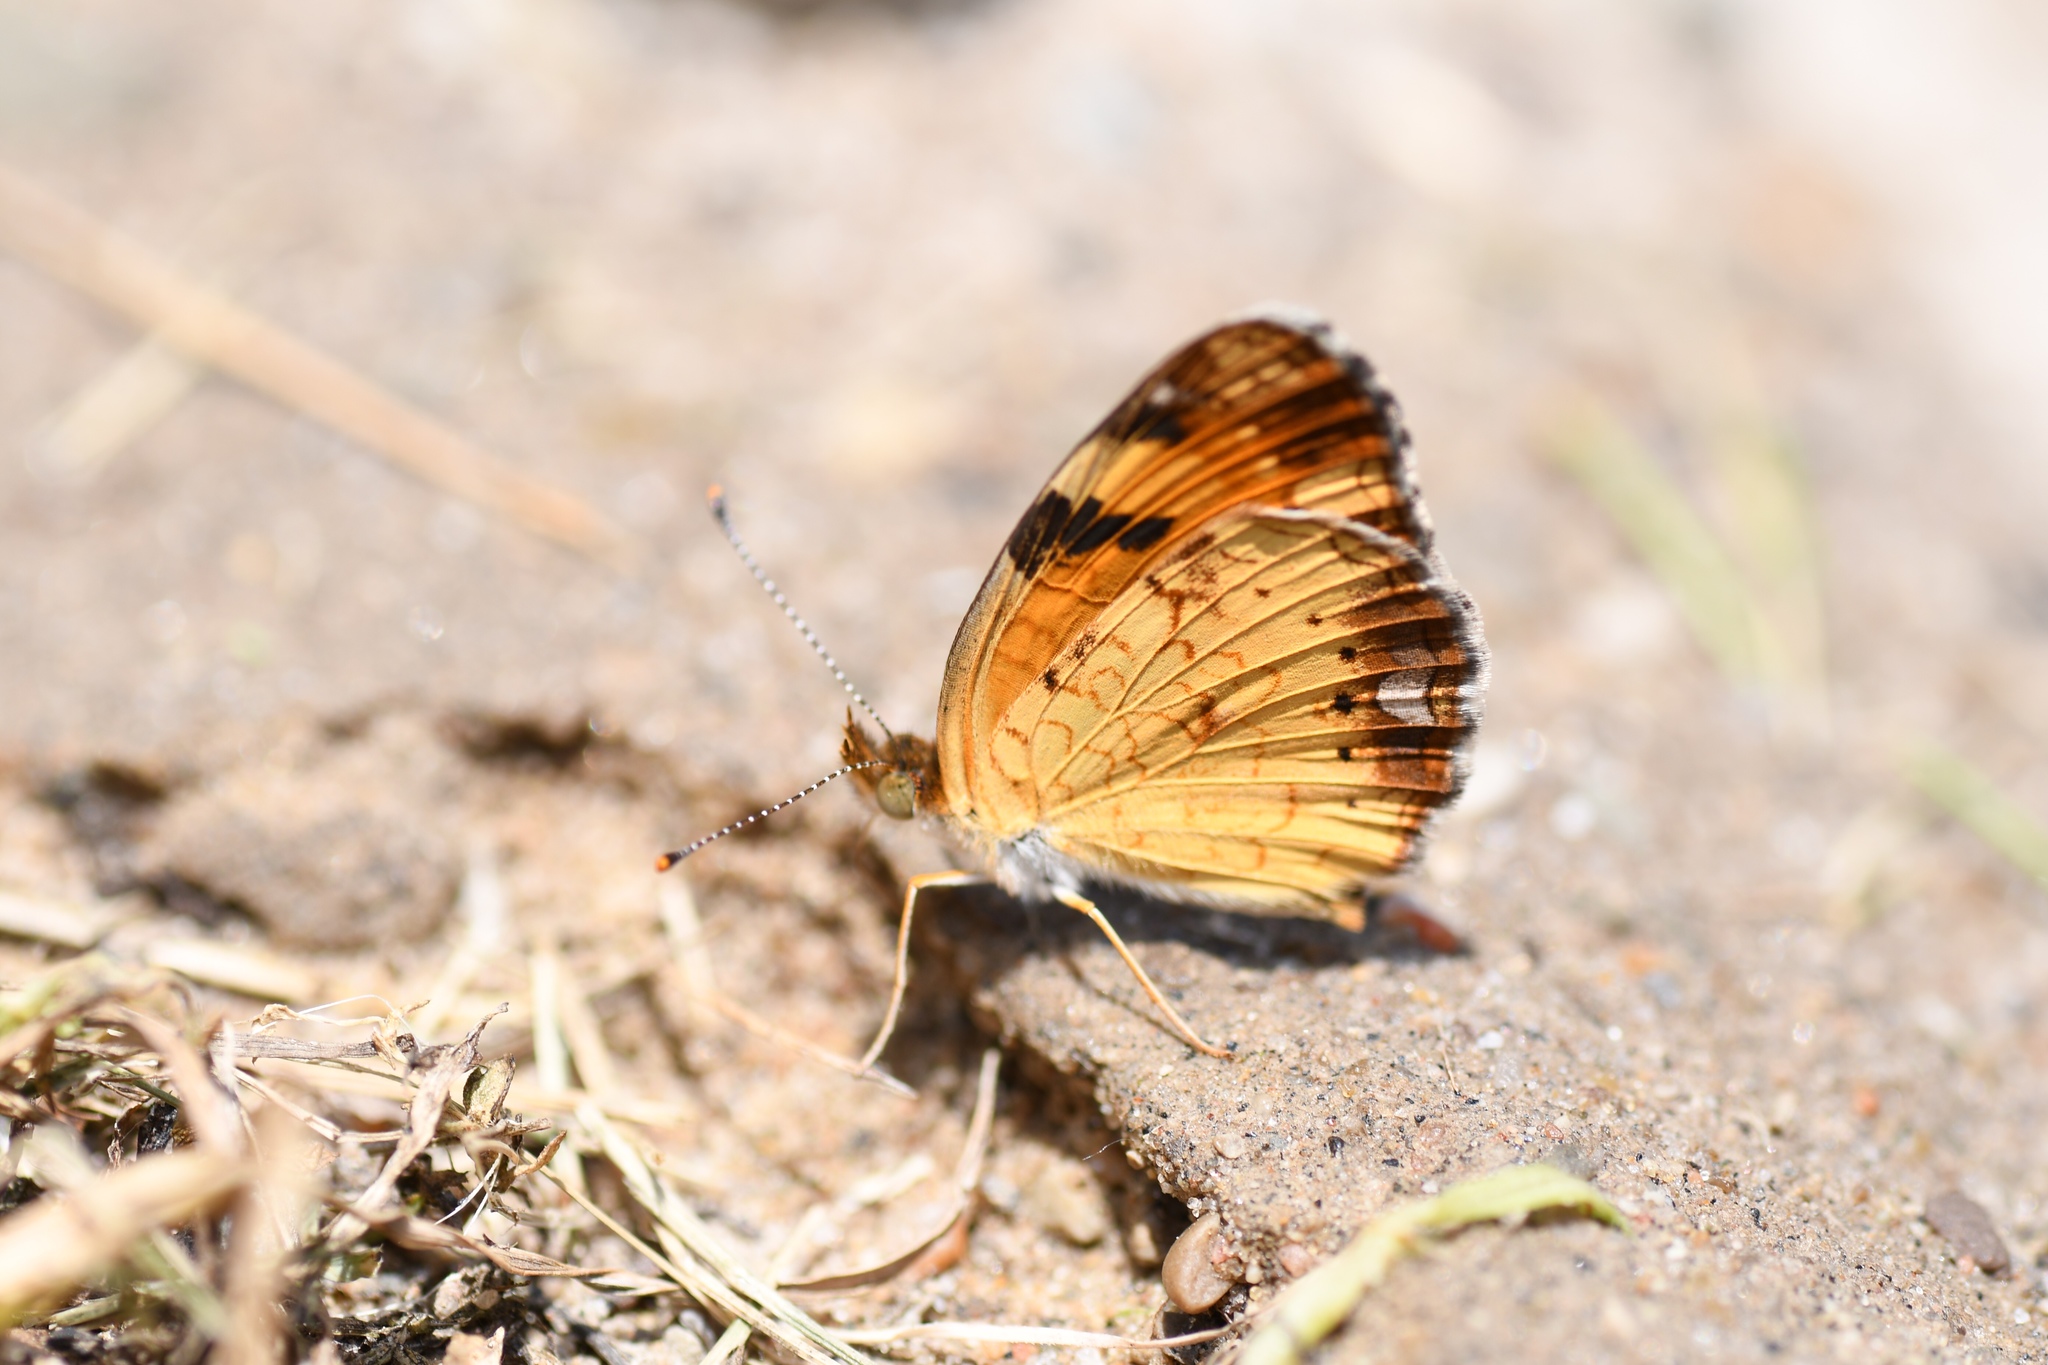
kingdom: Animalia
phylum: Arthropoda
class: Insecta
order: Lepidoptera
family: Nymphalidae
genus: Phyciodes
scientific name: Phyciodes tharos
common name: Pearl crescent
